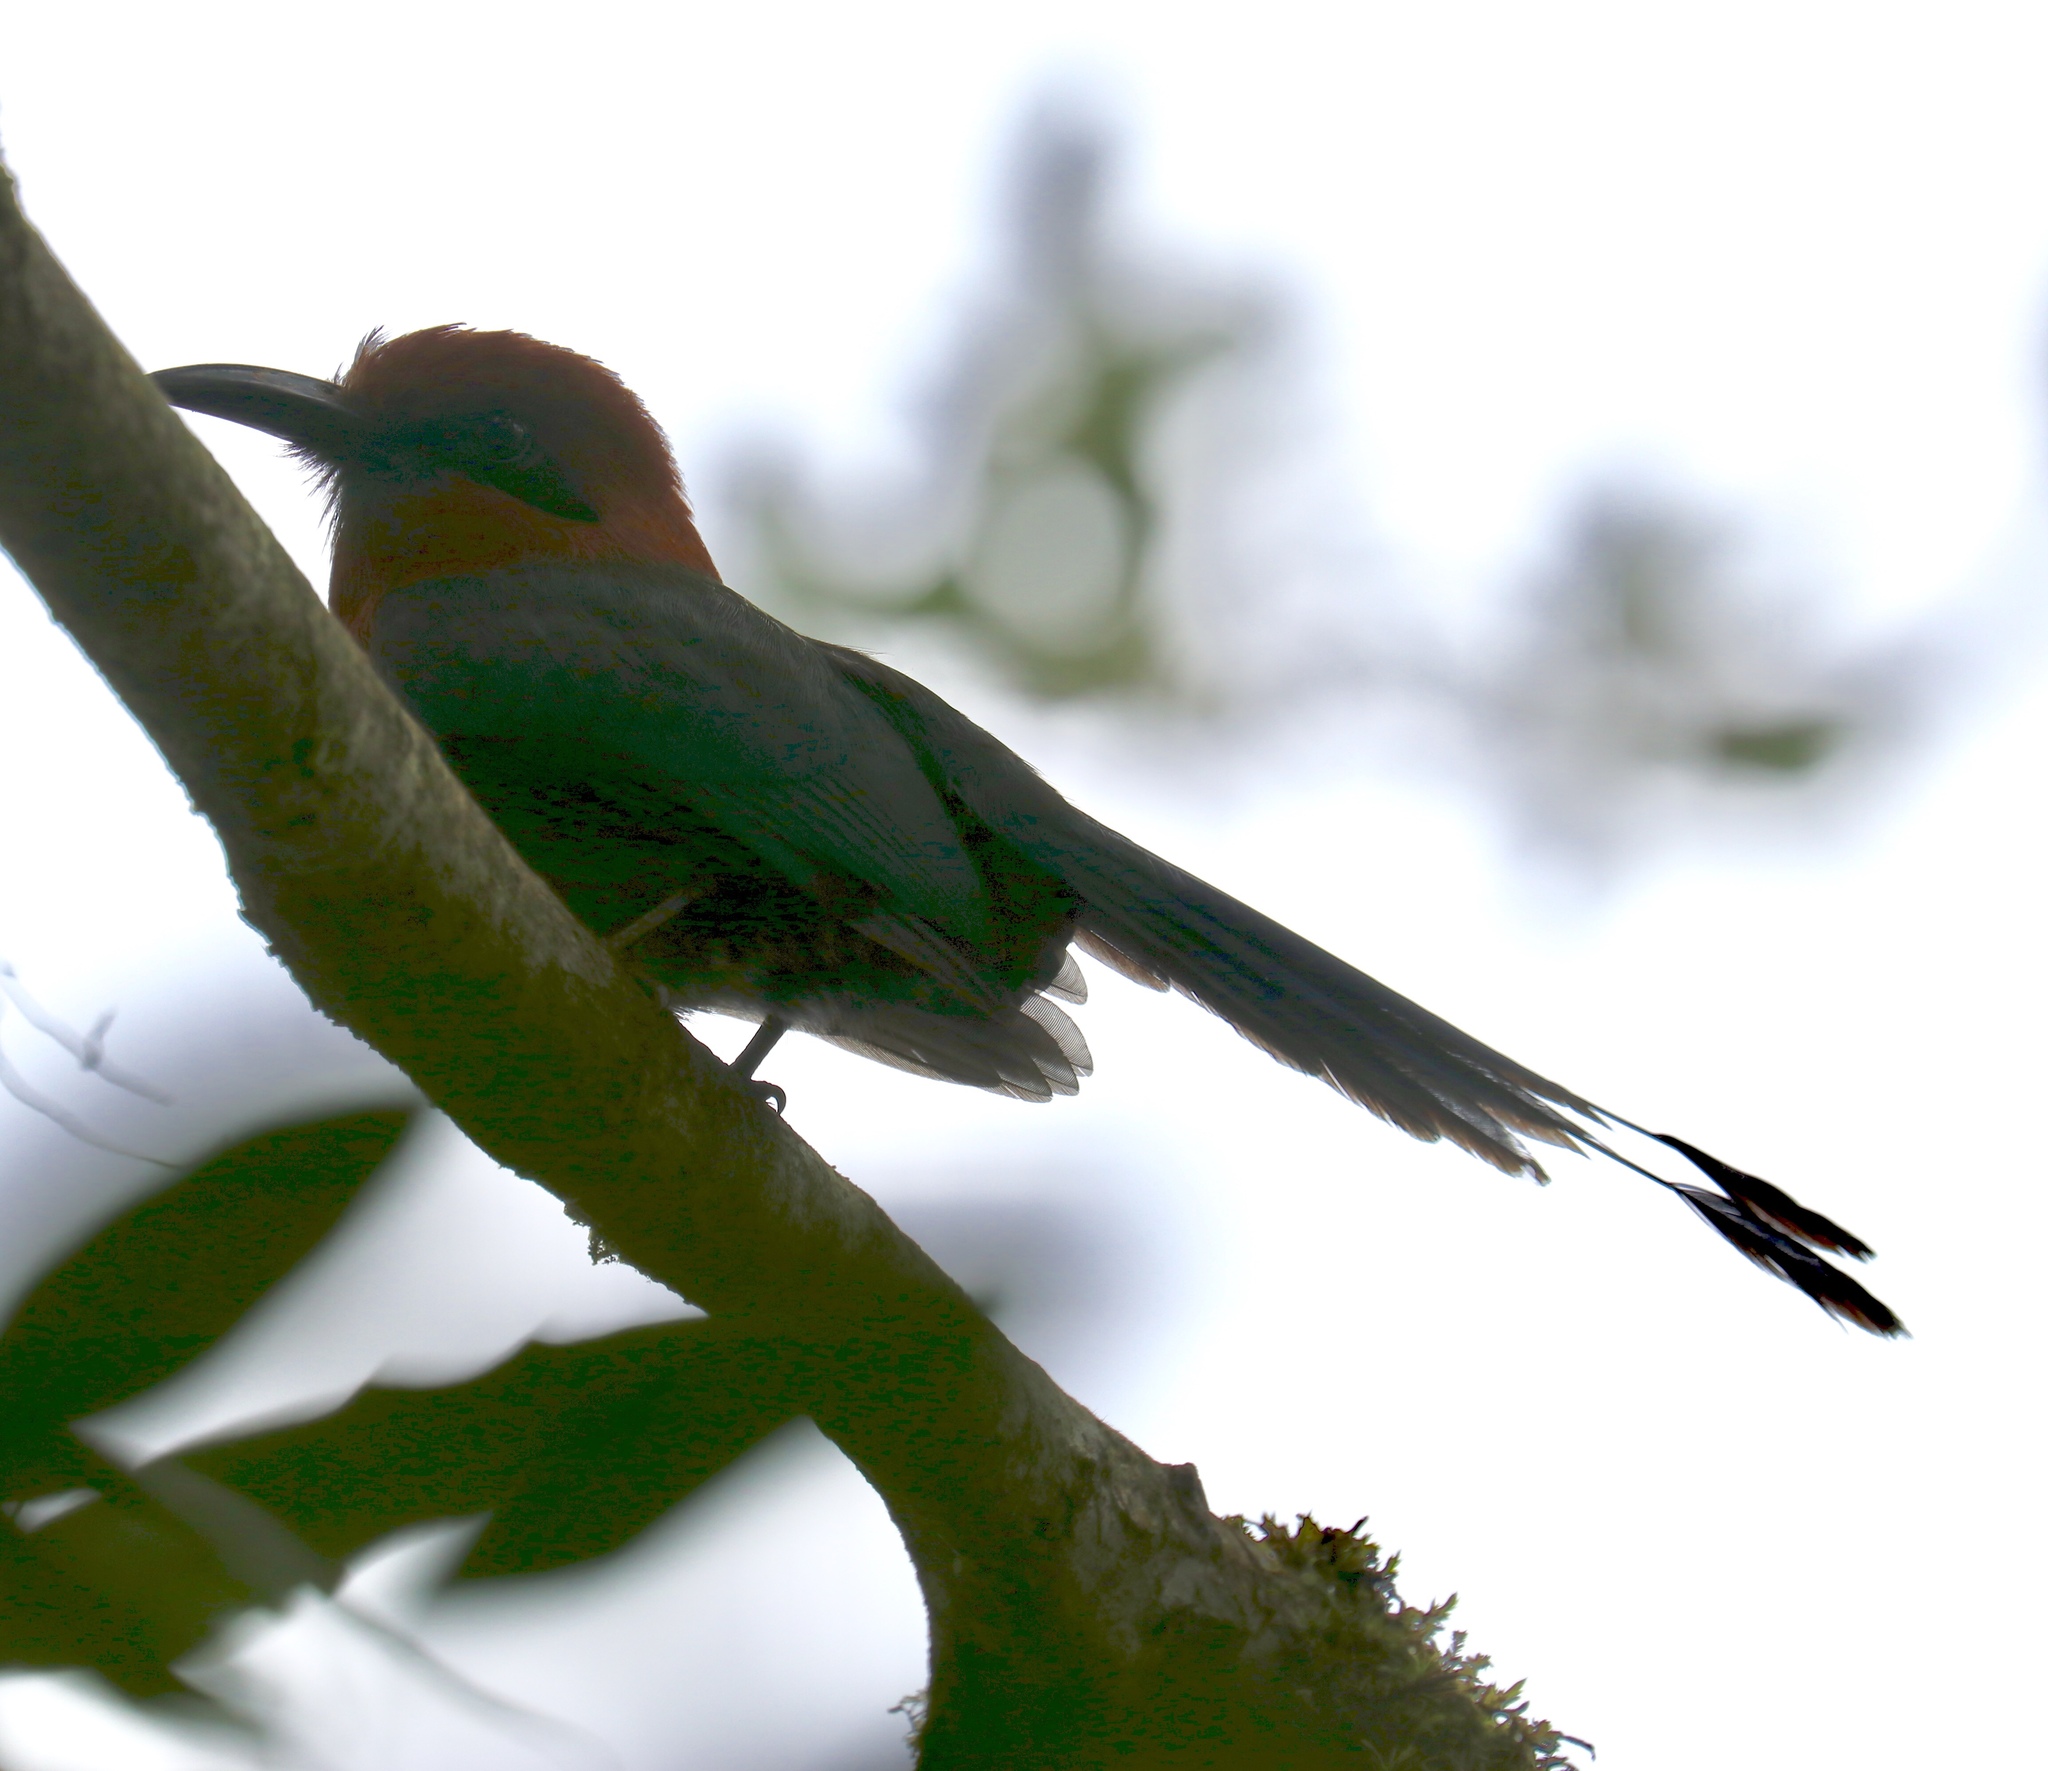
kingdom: Animalia
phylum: Chordata
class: Aves
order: Coraciiformes
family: Momotidae
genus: Baryphthengus
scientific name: Baryphthengus martii
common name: Rufous motmot
